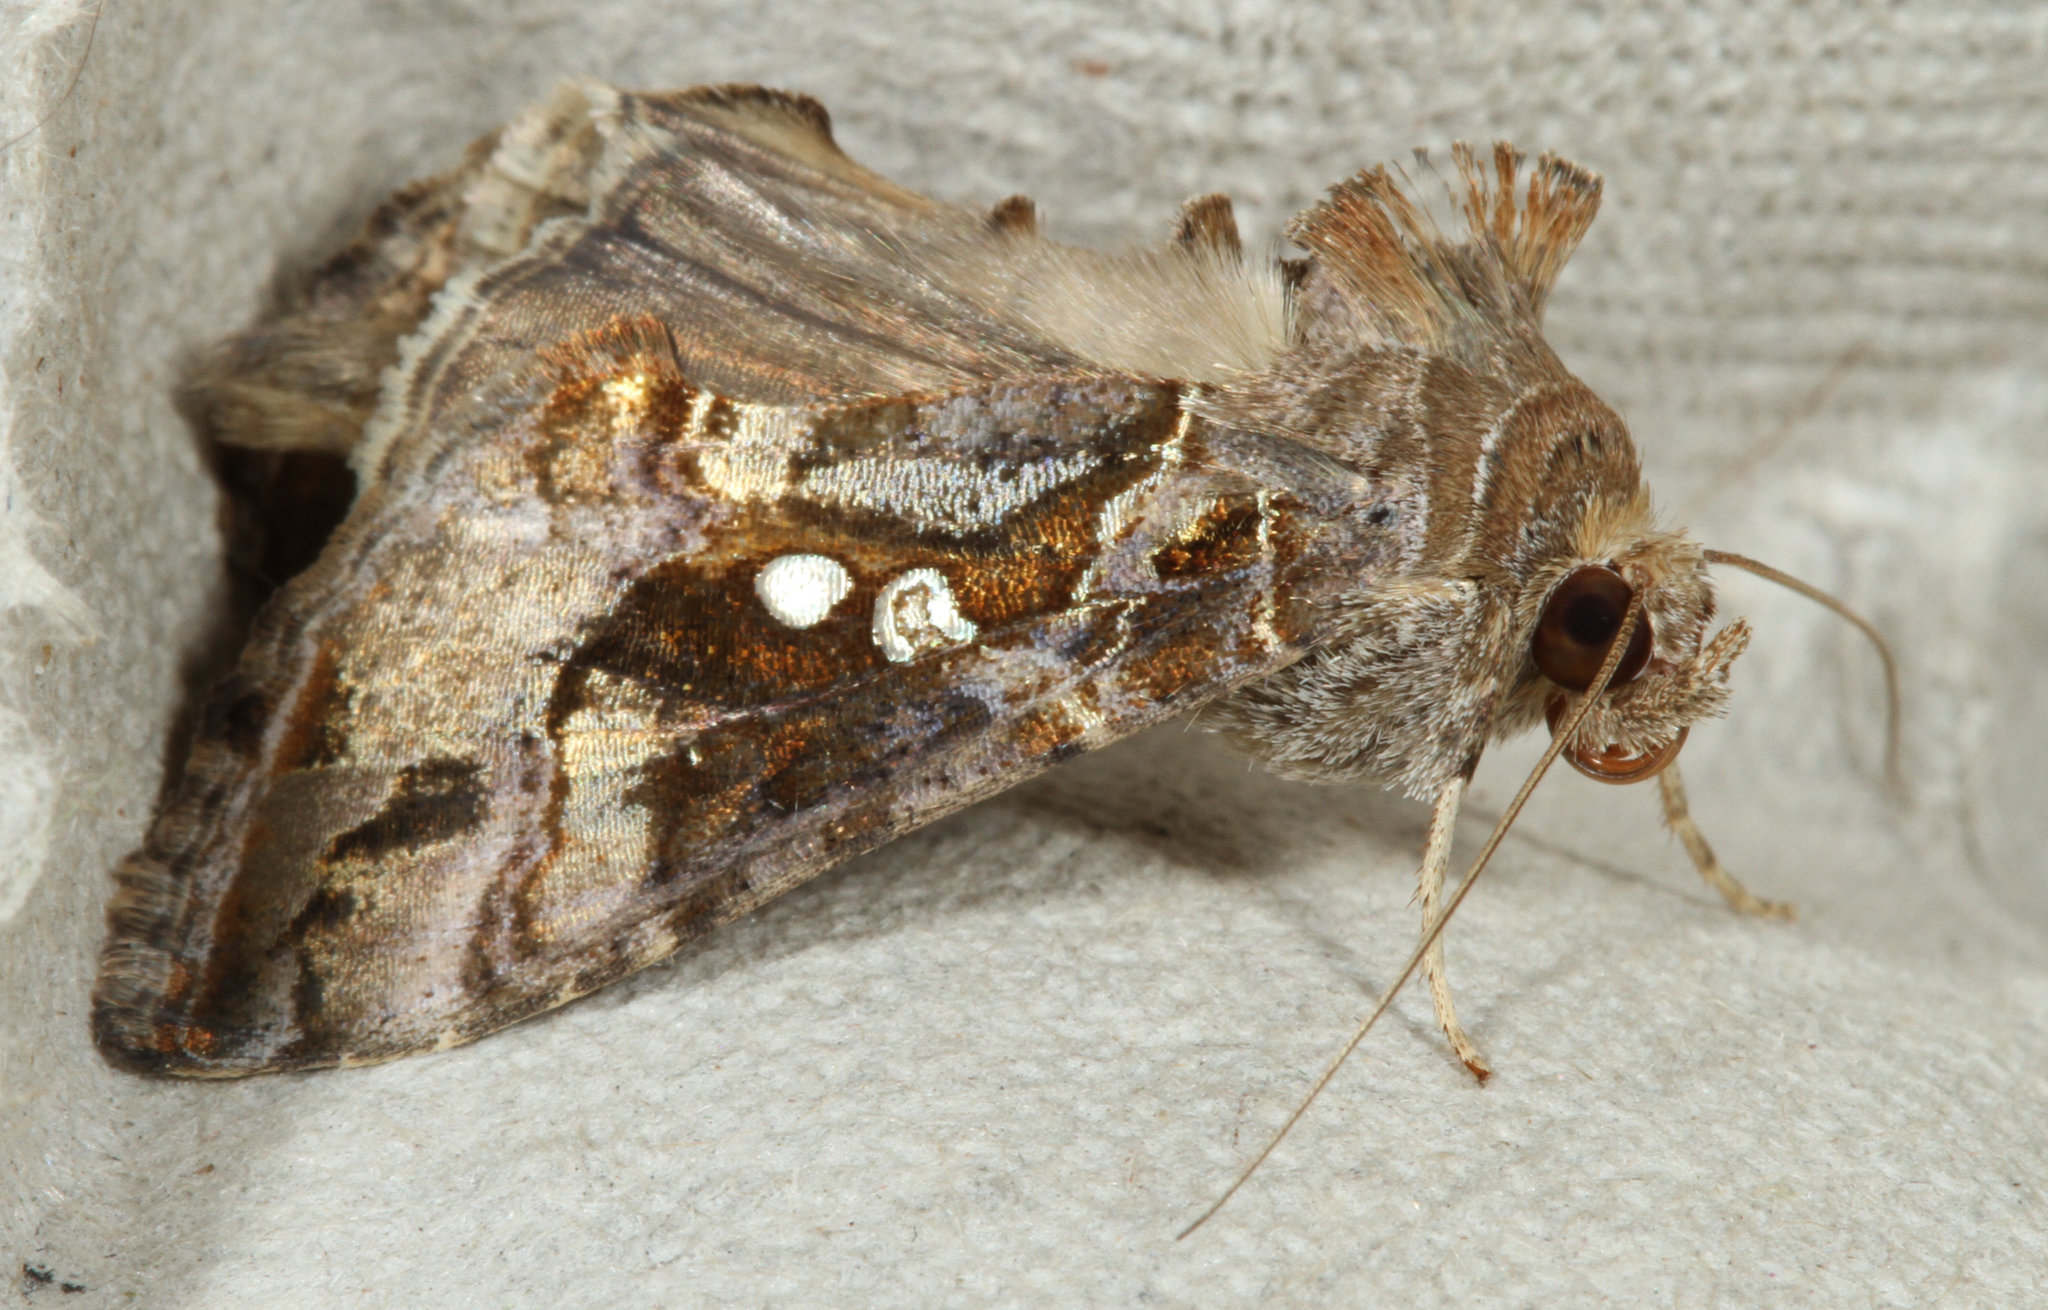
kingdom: Animalia
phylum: Arthropoda
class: Insecta
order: Lepidoptera
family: Noctuidae
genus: Chrysodeixis
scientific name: Chrysodeixis includens
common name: Cutworm moth
